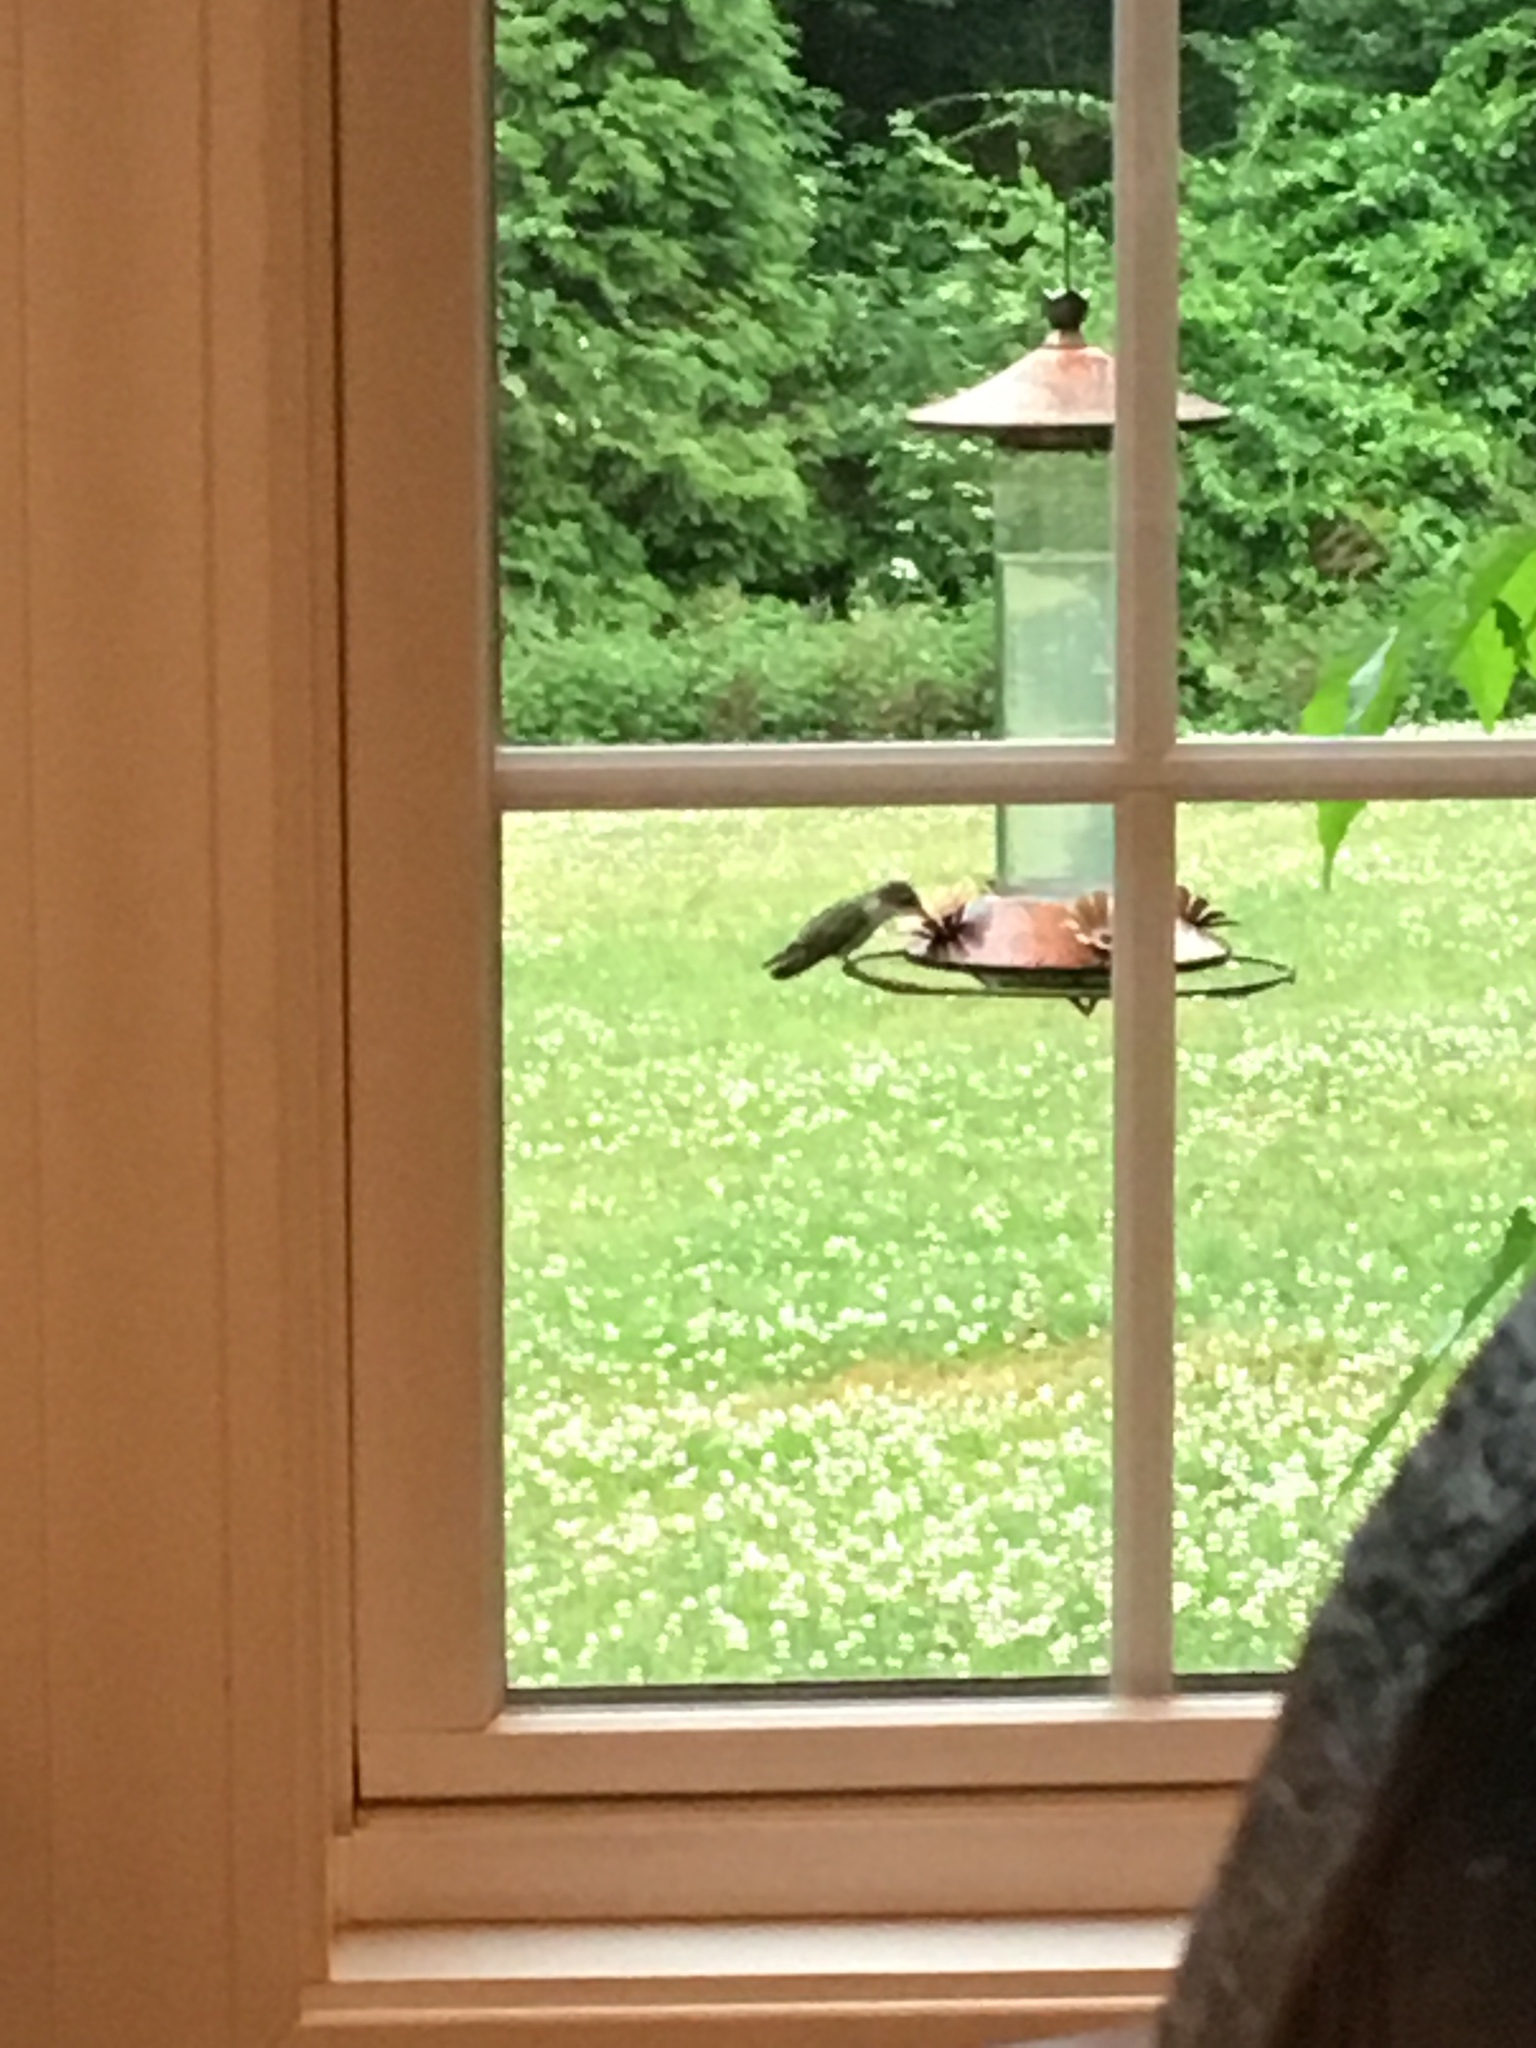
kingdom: Animalia
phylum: Chordata
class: Aves
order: Apodiformes
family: Trochilidae
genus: Archilochus
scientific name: Archilochus colubris
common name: Ruby-throated hummingbird
